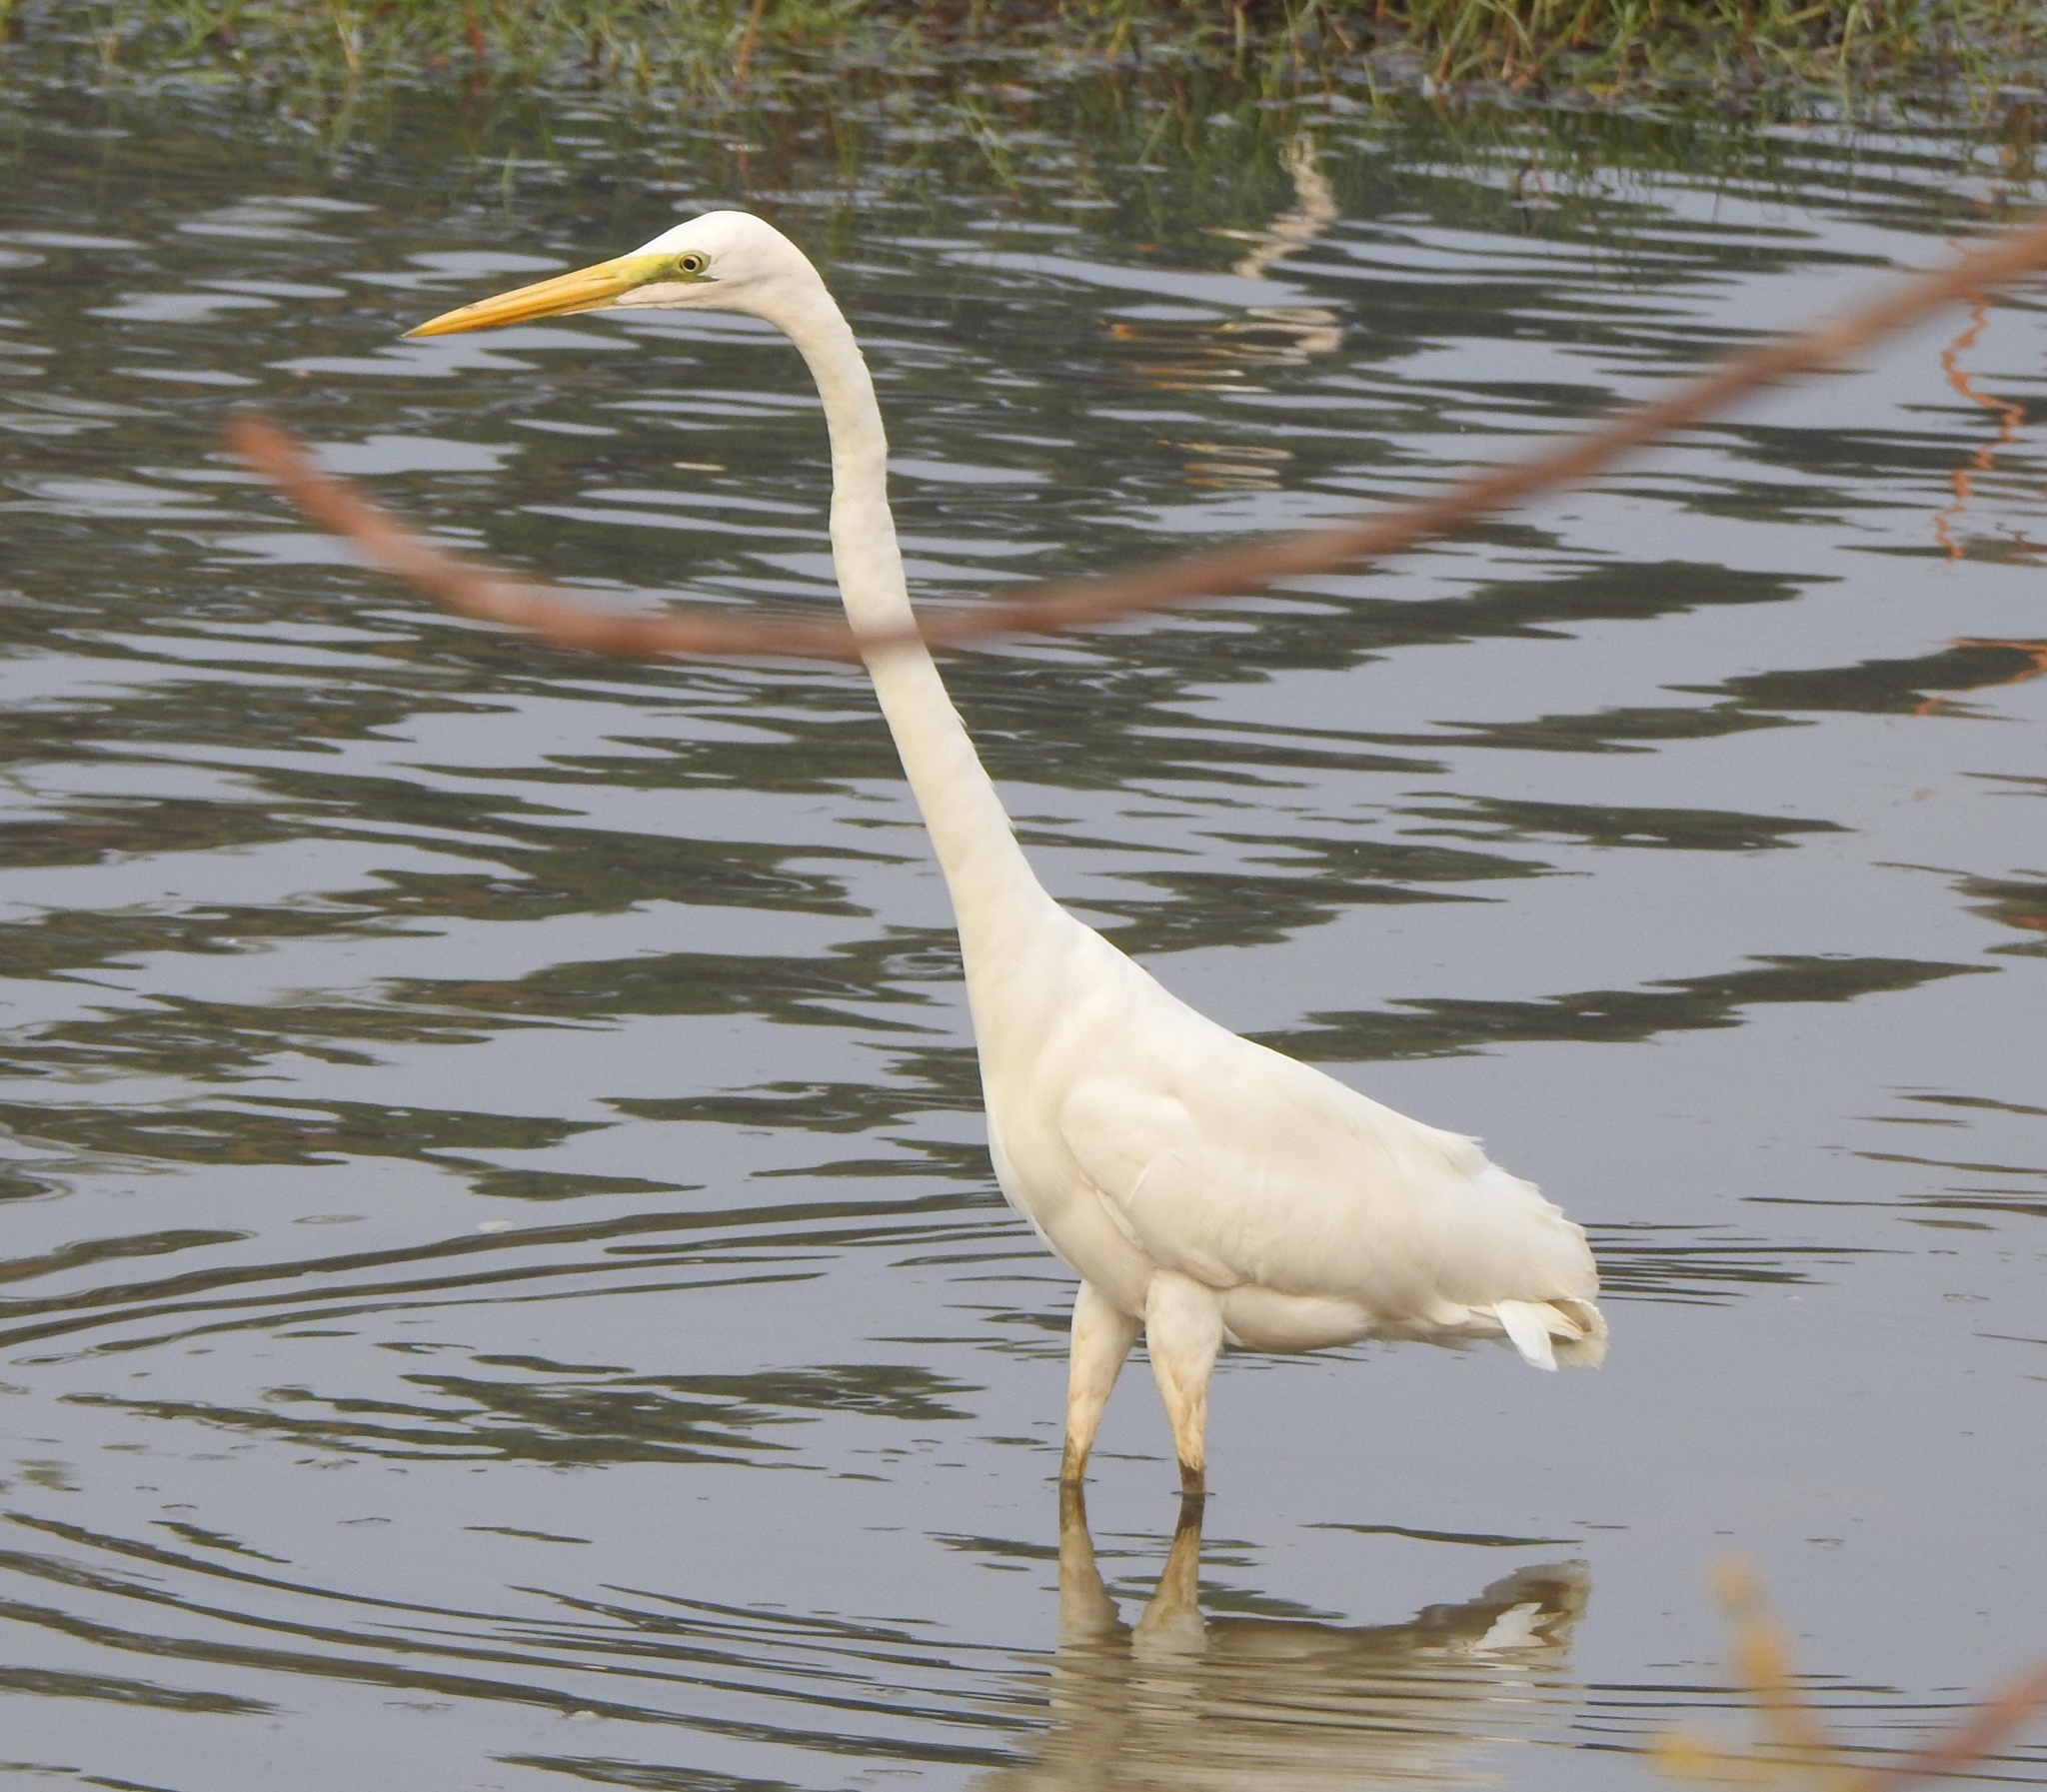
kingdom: Animalia
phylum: Chordata
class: Aves
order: Pelecaniformes
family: Ardeidae
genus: Ardea
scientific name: Ardea alba
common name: Great egret
